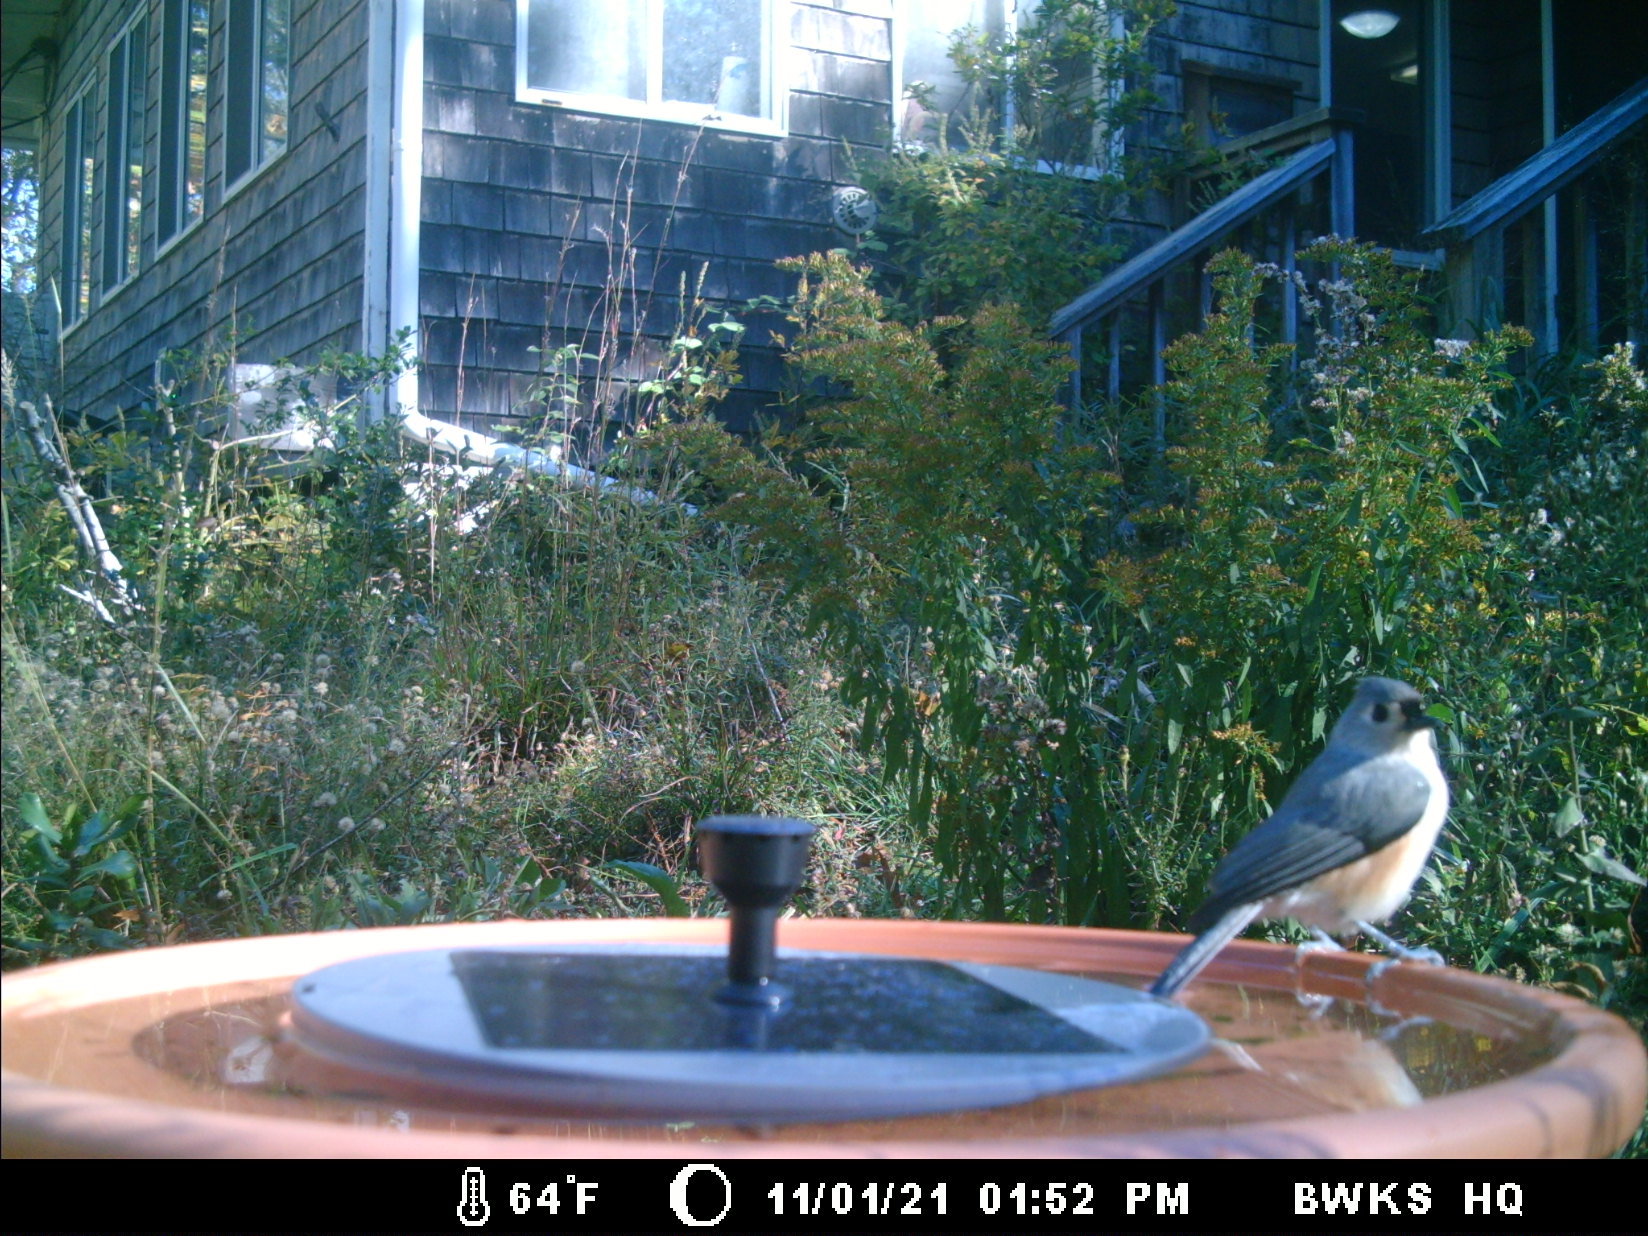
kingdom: Animalia
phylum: Chordata
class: Aves
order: Passeriformes
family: Paridae
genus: Baeolophus
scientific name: Baeolophus bicolor
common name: Tufted titmouse
